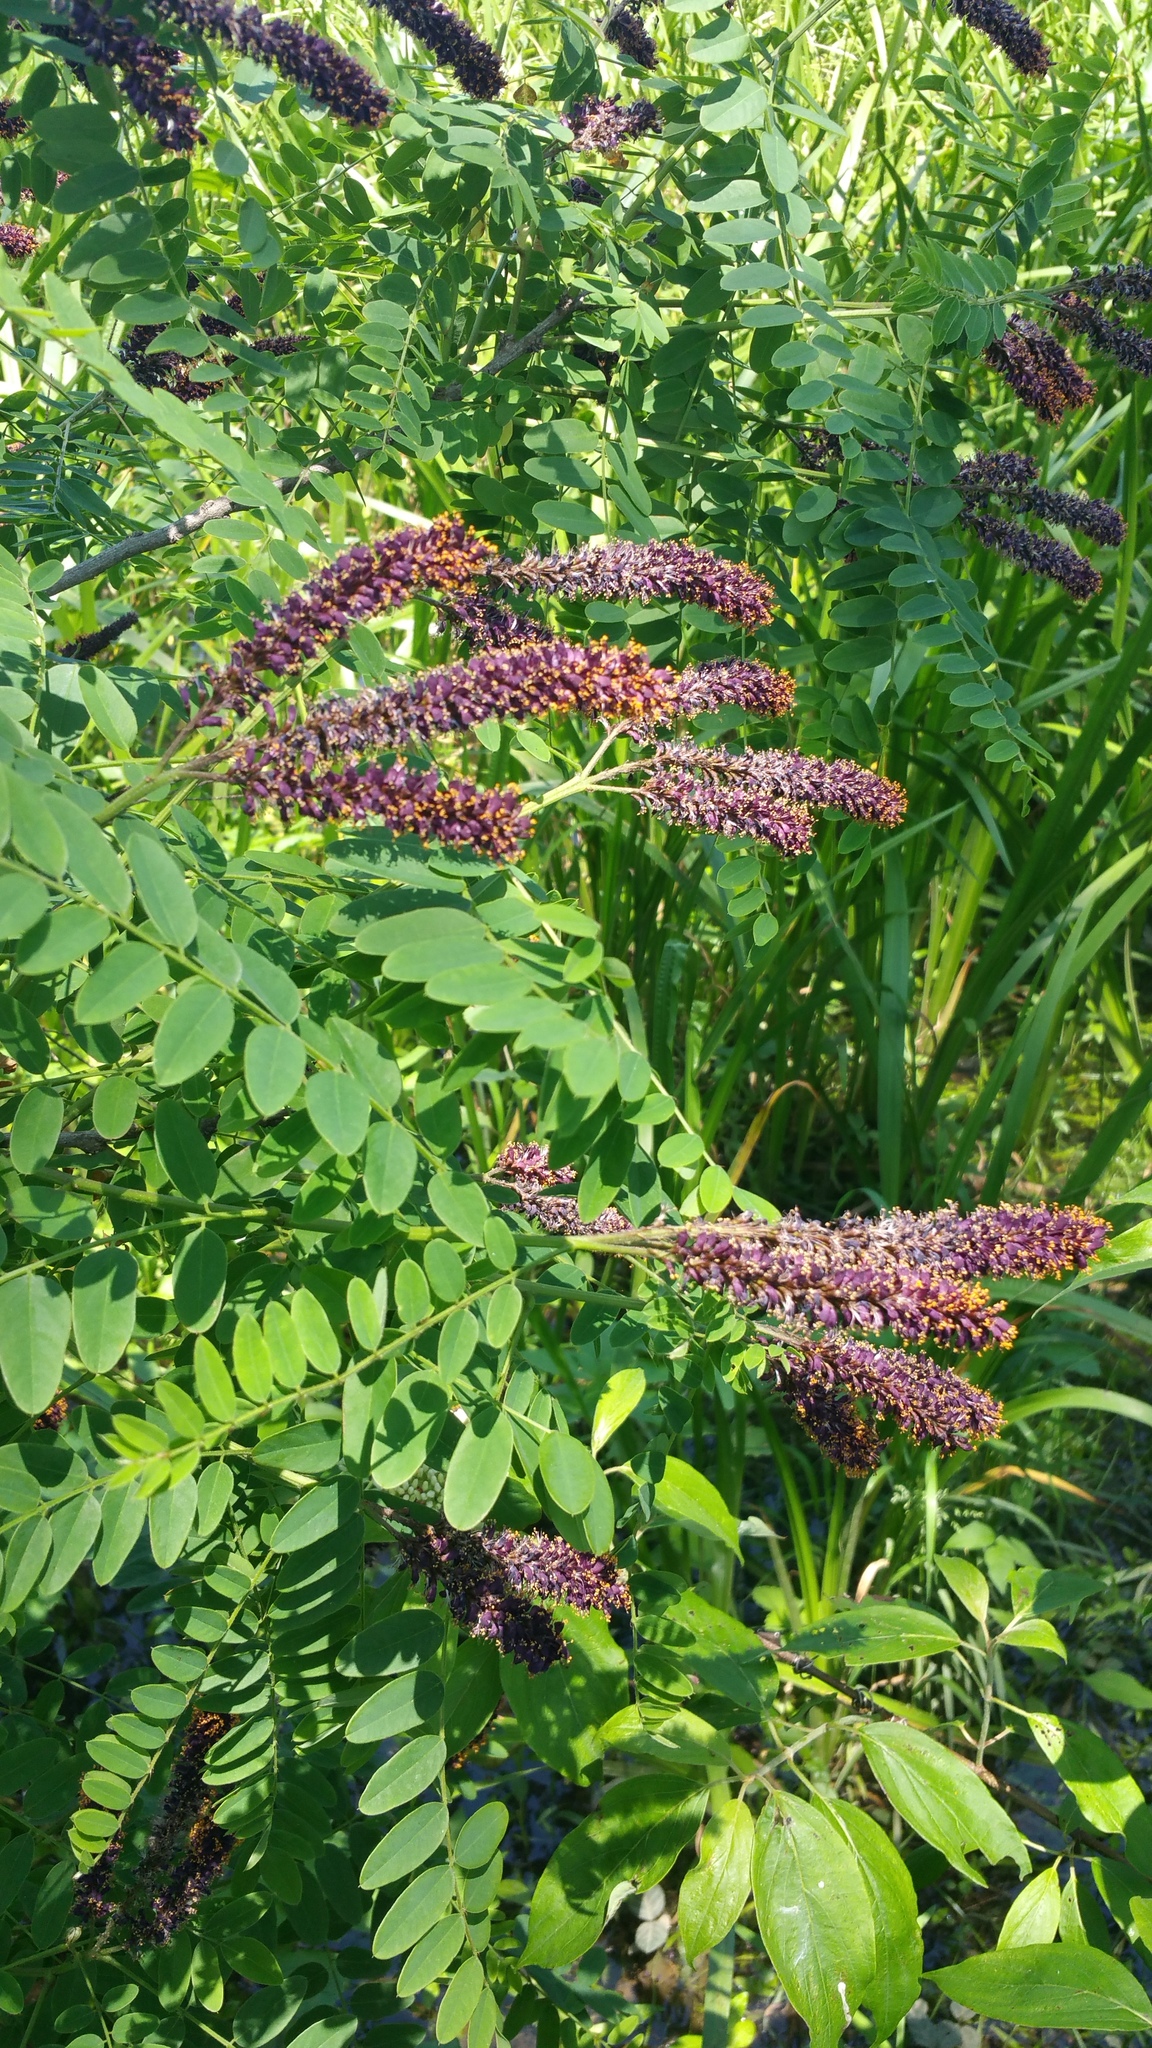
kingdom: Plantae
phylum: Tracheophyta
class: Magnoliopsida
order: Fabales
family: Fabaceae
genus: Amorpha
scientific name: Amorpha fruticosa
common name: False indigo
